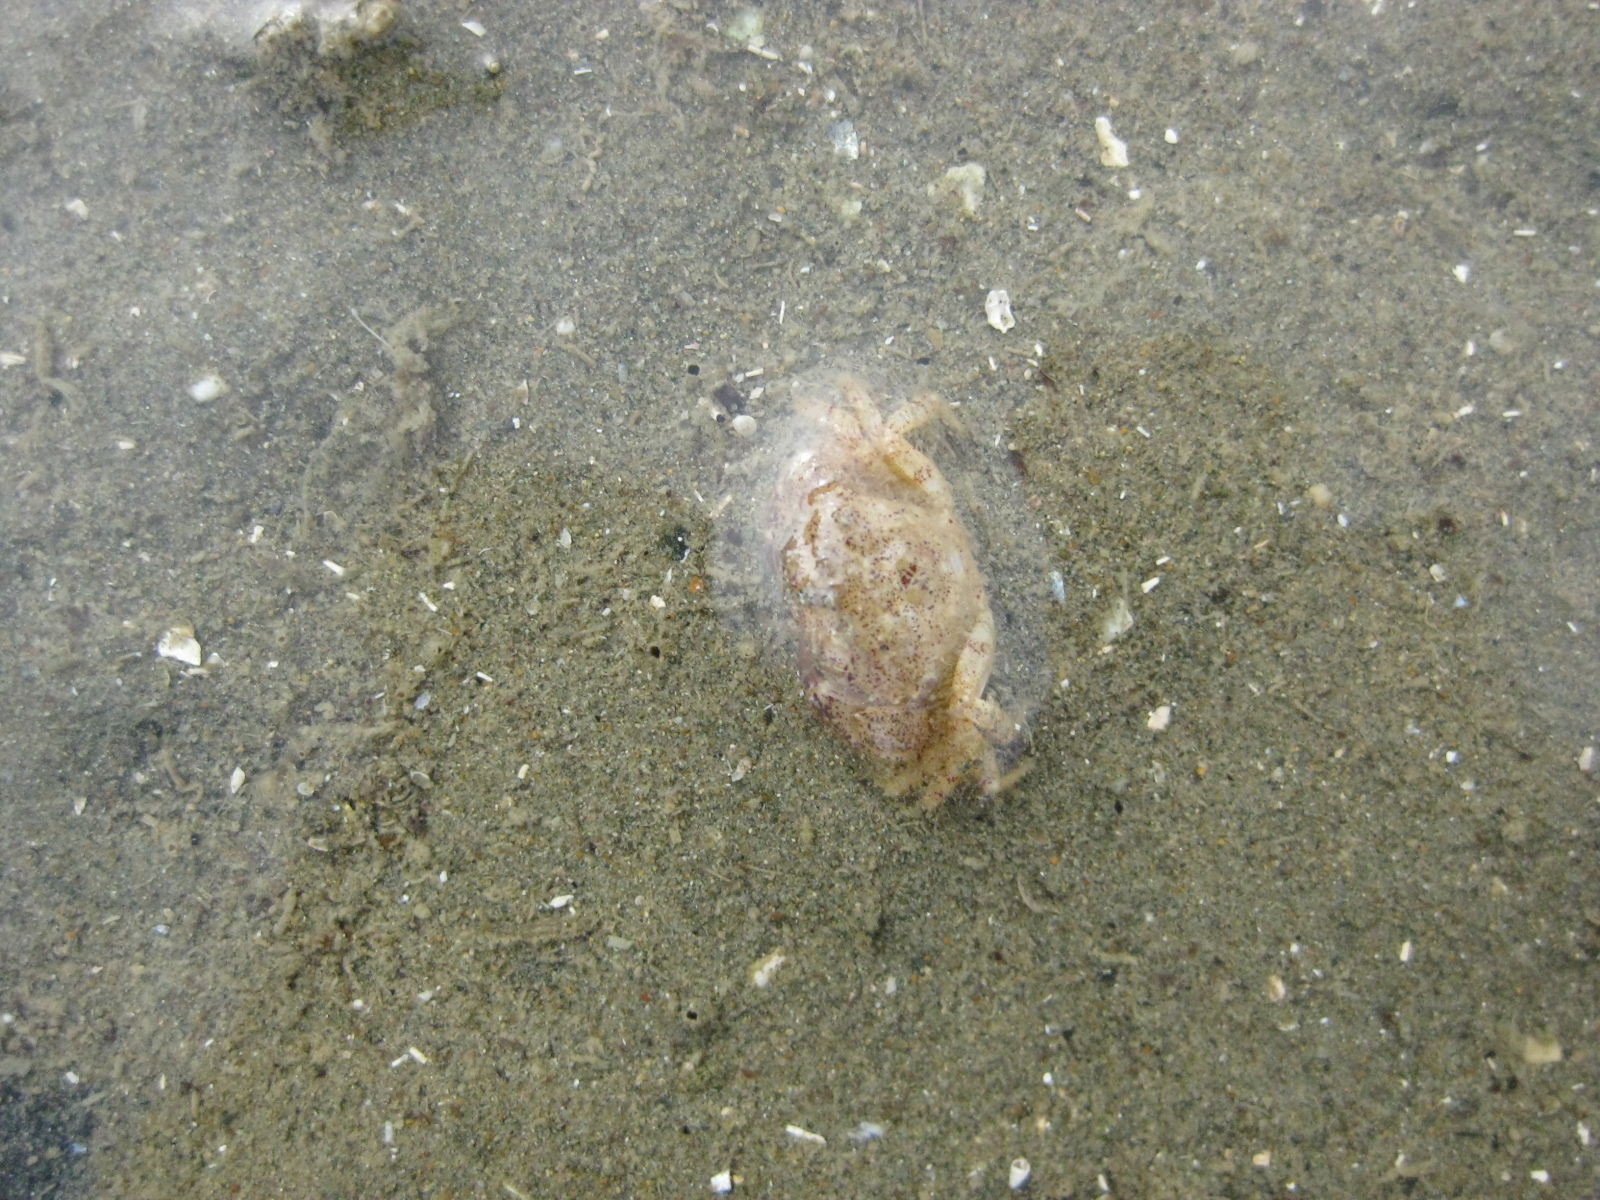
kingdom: Animalia
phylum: Arthropoda
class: Malacostraca
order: Decapoda
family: Pilumnidae
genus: Pilumnopeus
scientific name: Pilumnopeus serratifrons
